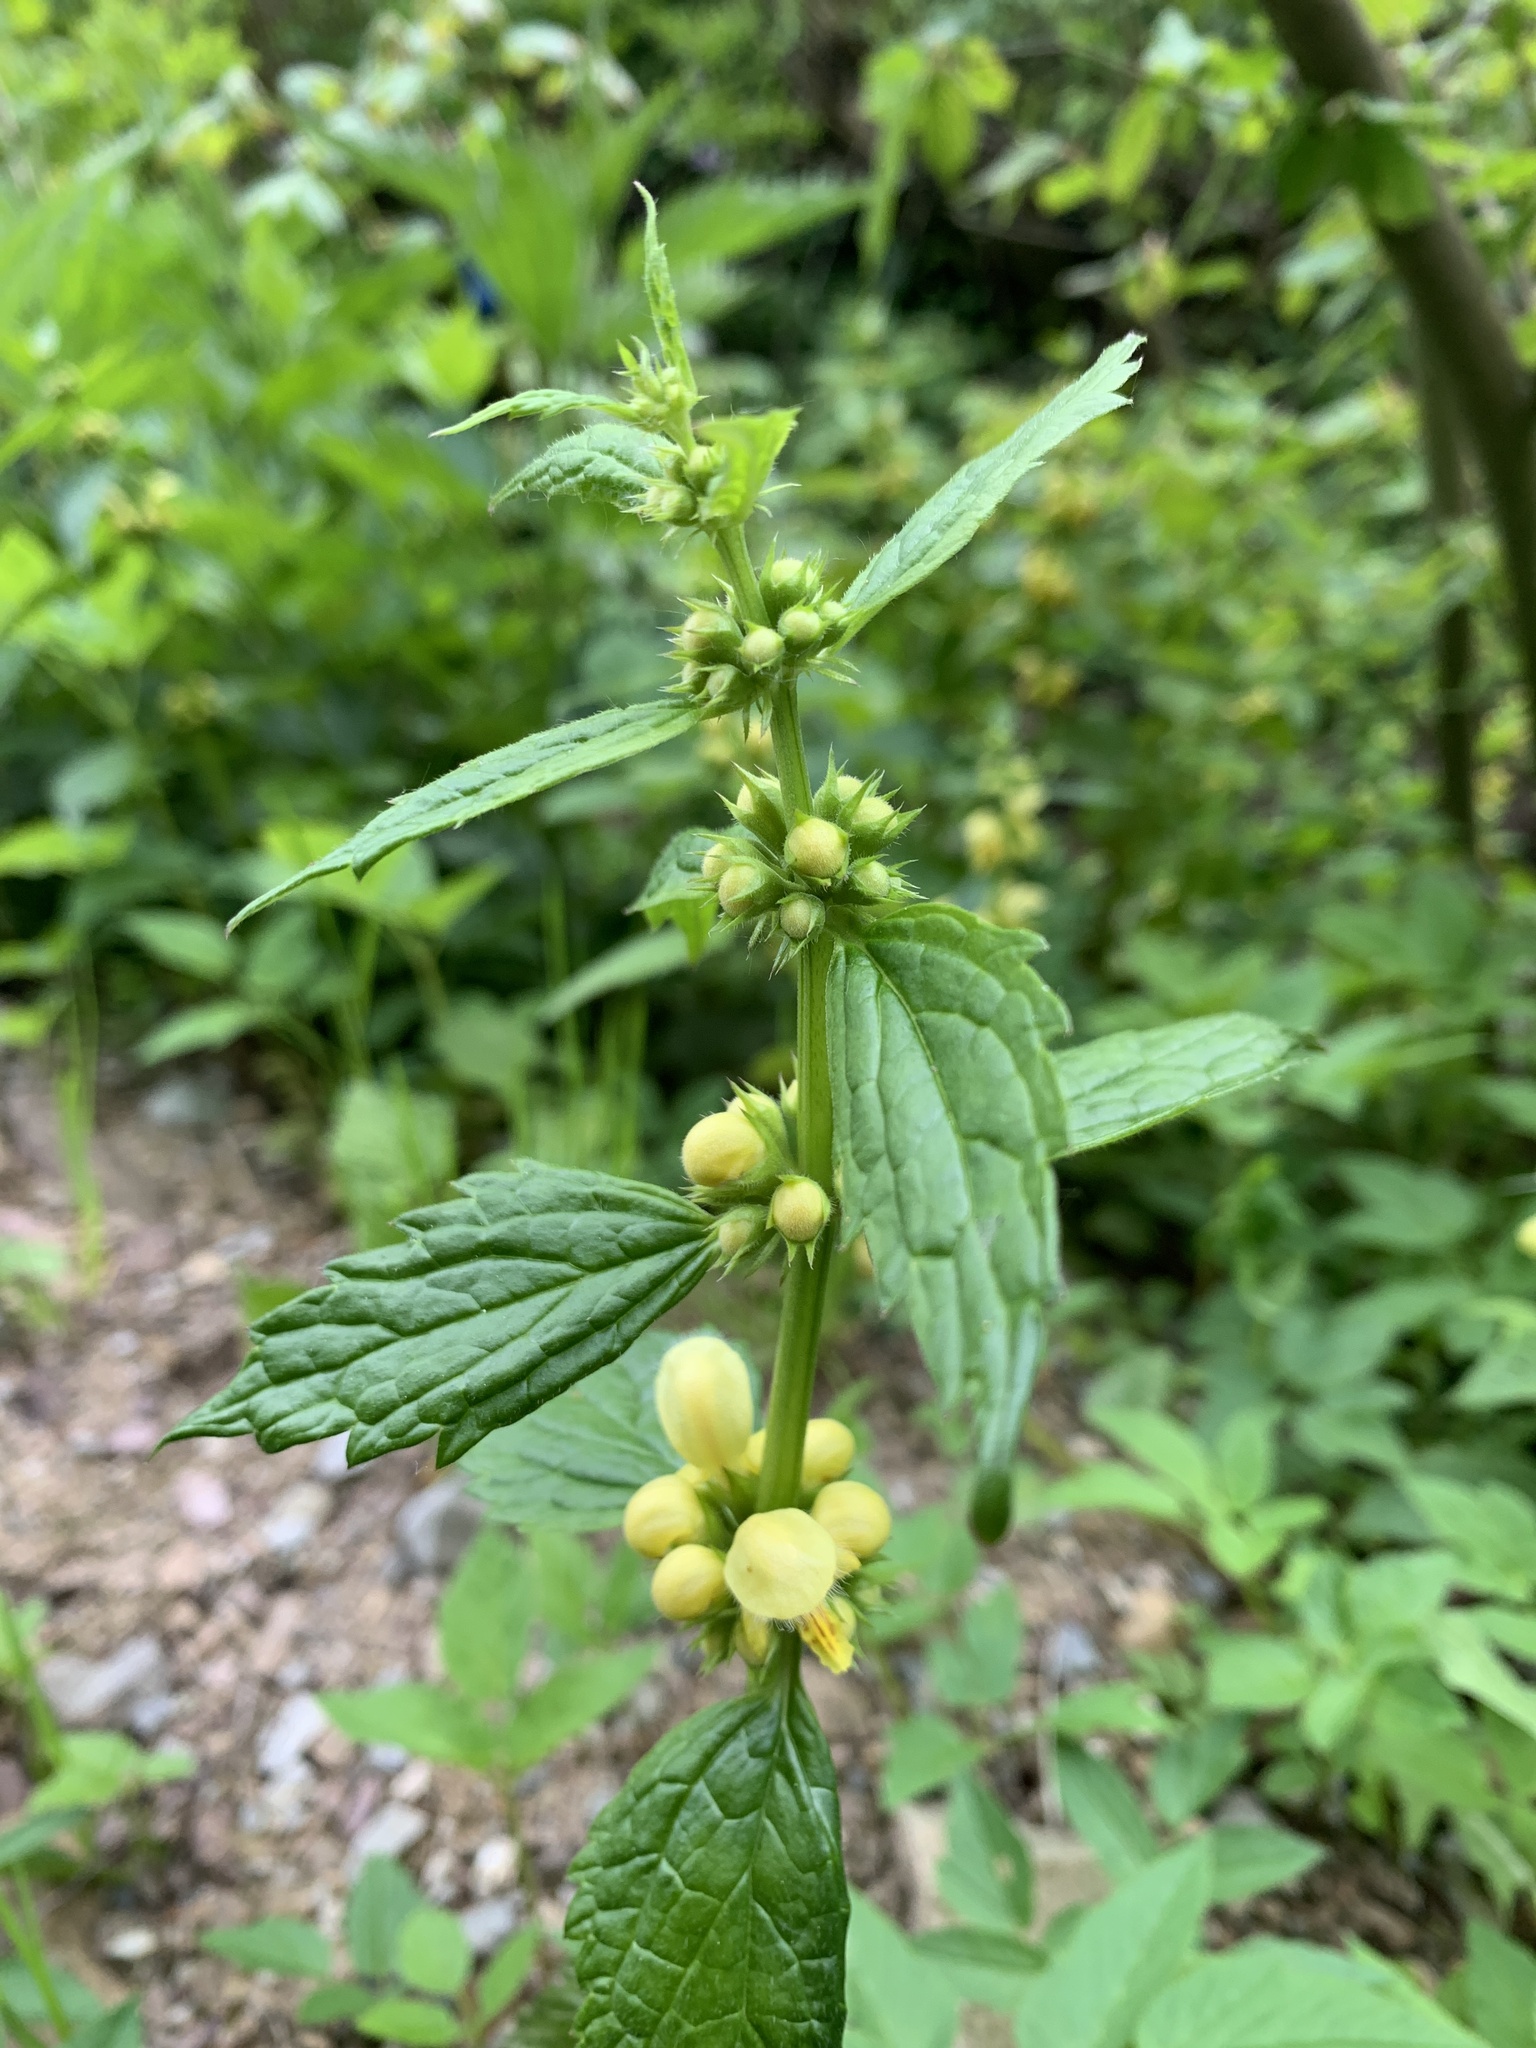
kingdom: Plantae
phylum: Tracheophyta
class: Magnoliopsida
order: Lamiales
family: Lamiaceae
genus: Lamium
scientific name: Lamium galeobdolon
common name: Yellow archangel
